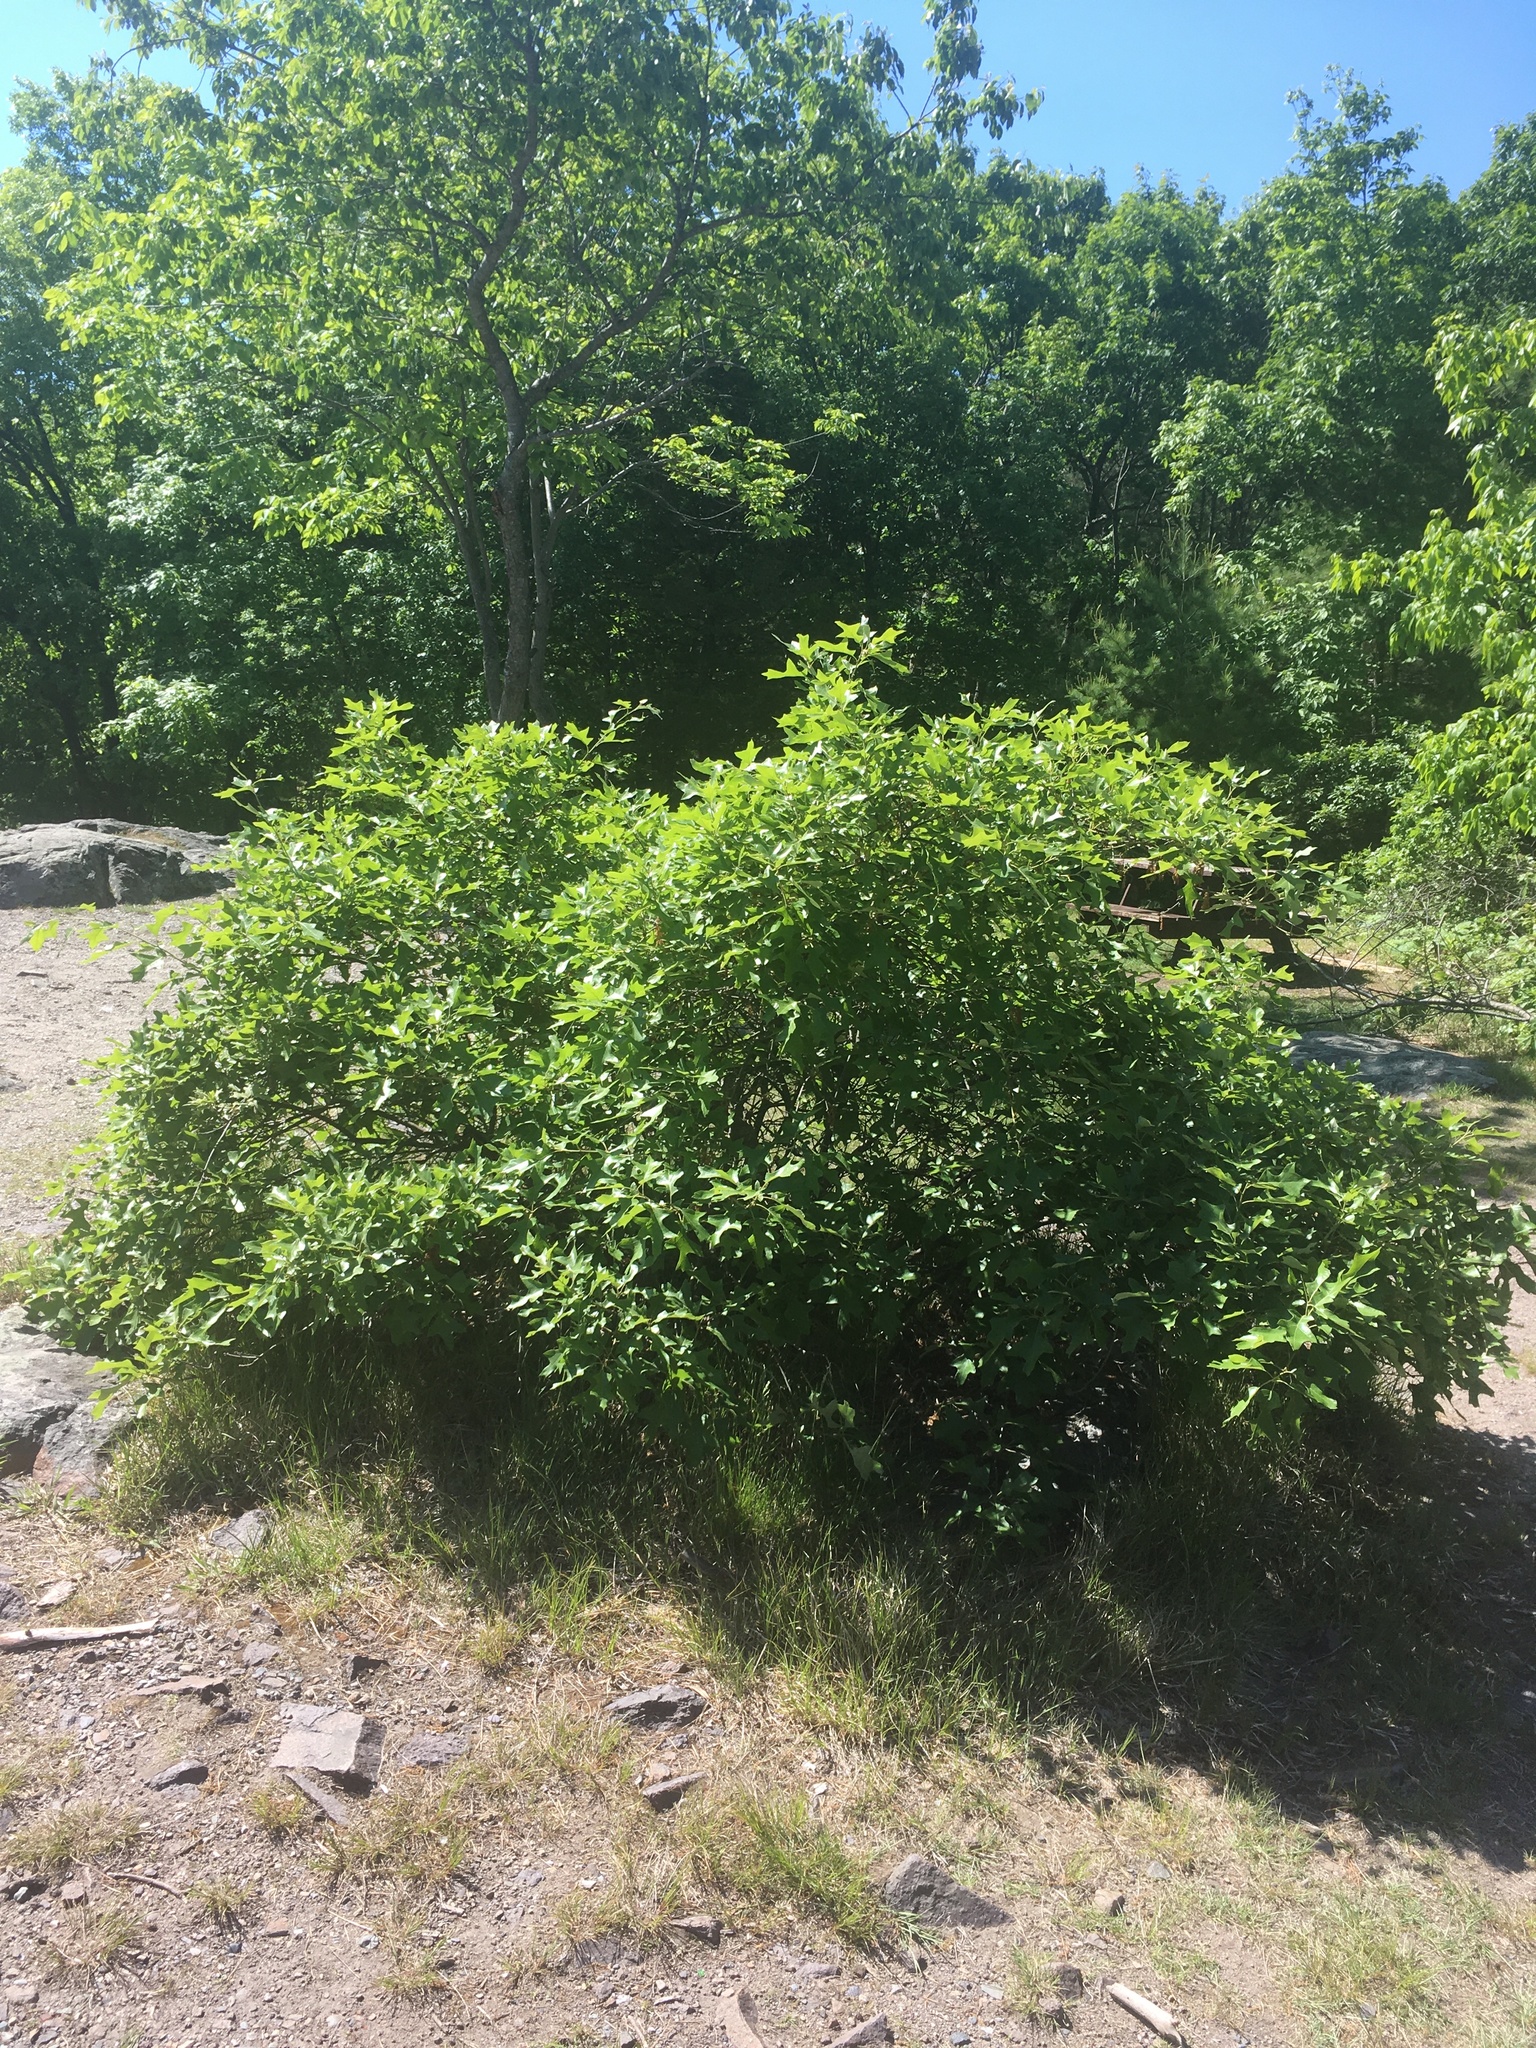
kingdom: Plantae
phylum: Tracheophyta
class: Magnoliopsida
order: Fagales
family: Fagaceae
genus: Quercus
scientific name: Quercus ilicifolia
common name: Bear oak
